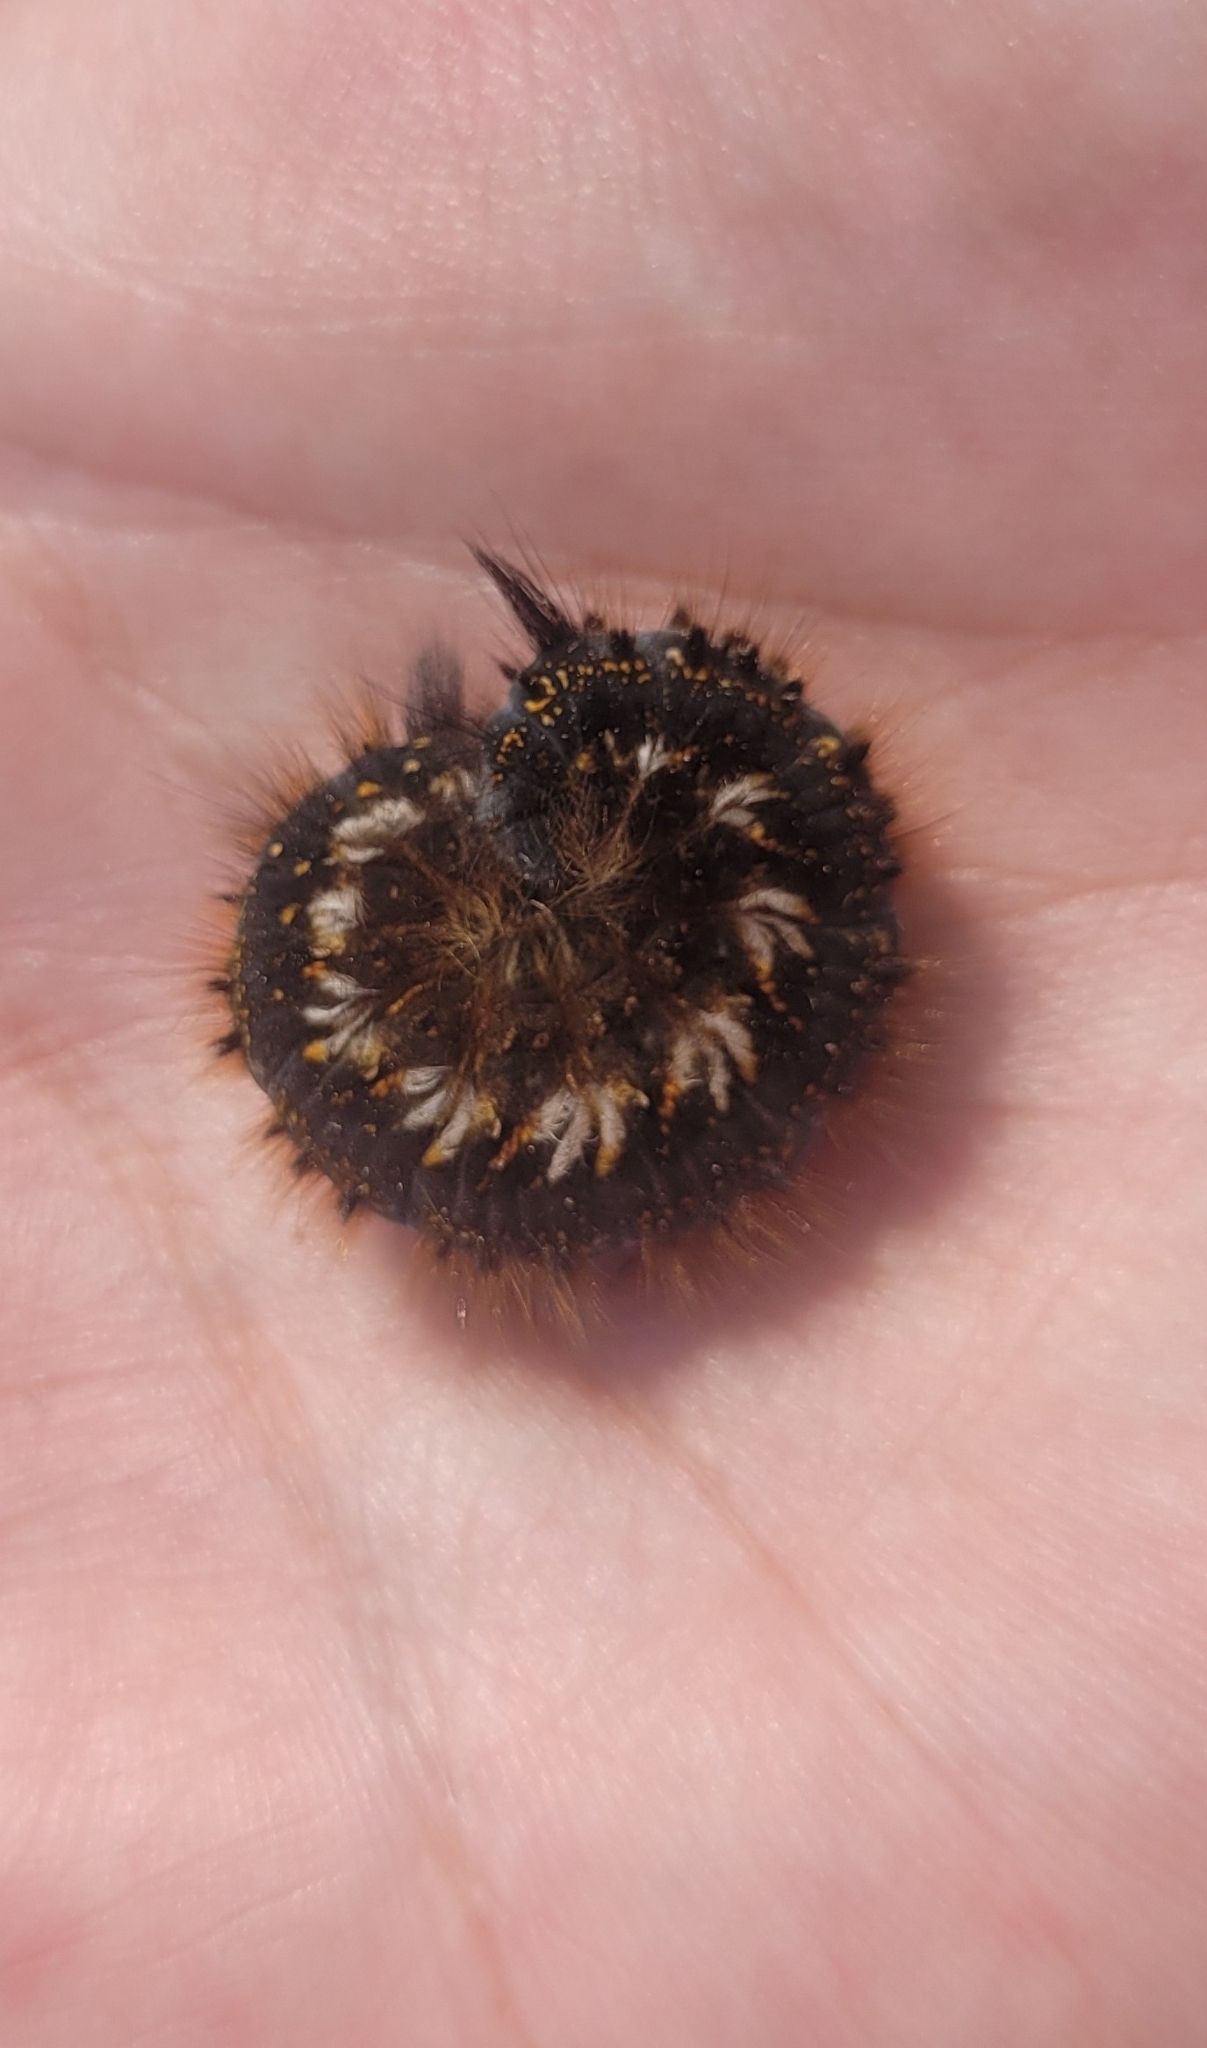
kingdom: Animalia
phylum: Arthropoda
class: Insecta
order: Lepidoptera
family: Lasiocampidae
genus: Euthrix
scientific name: Euthrix potatoria
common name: Drinker
